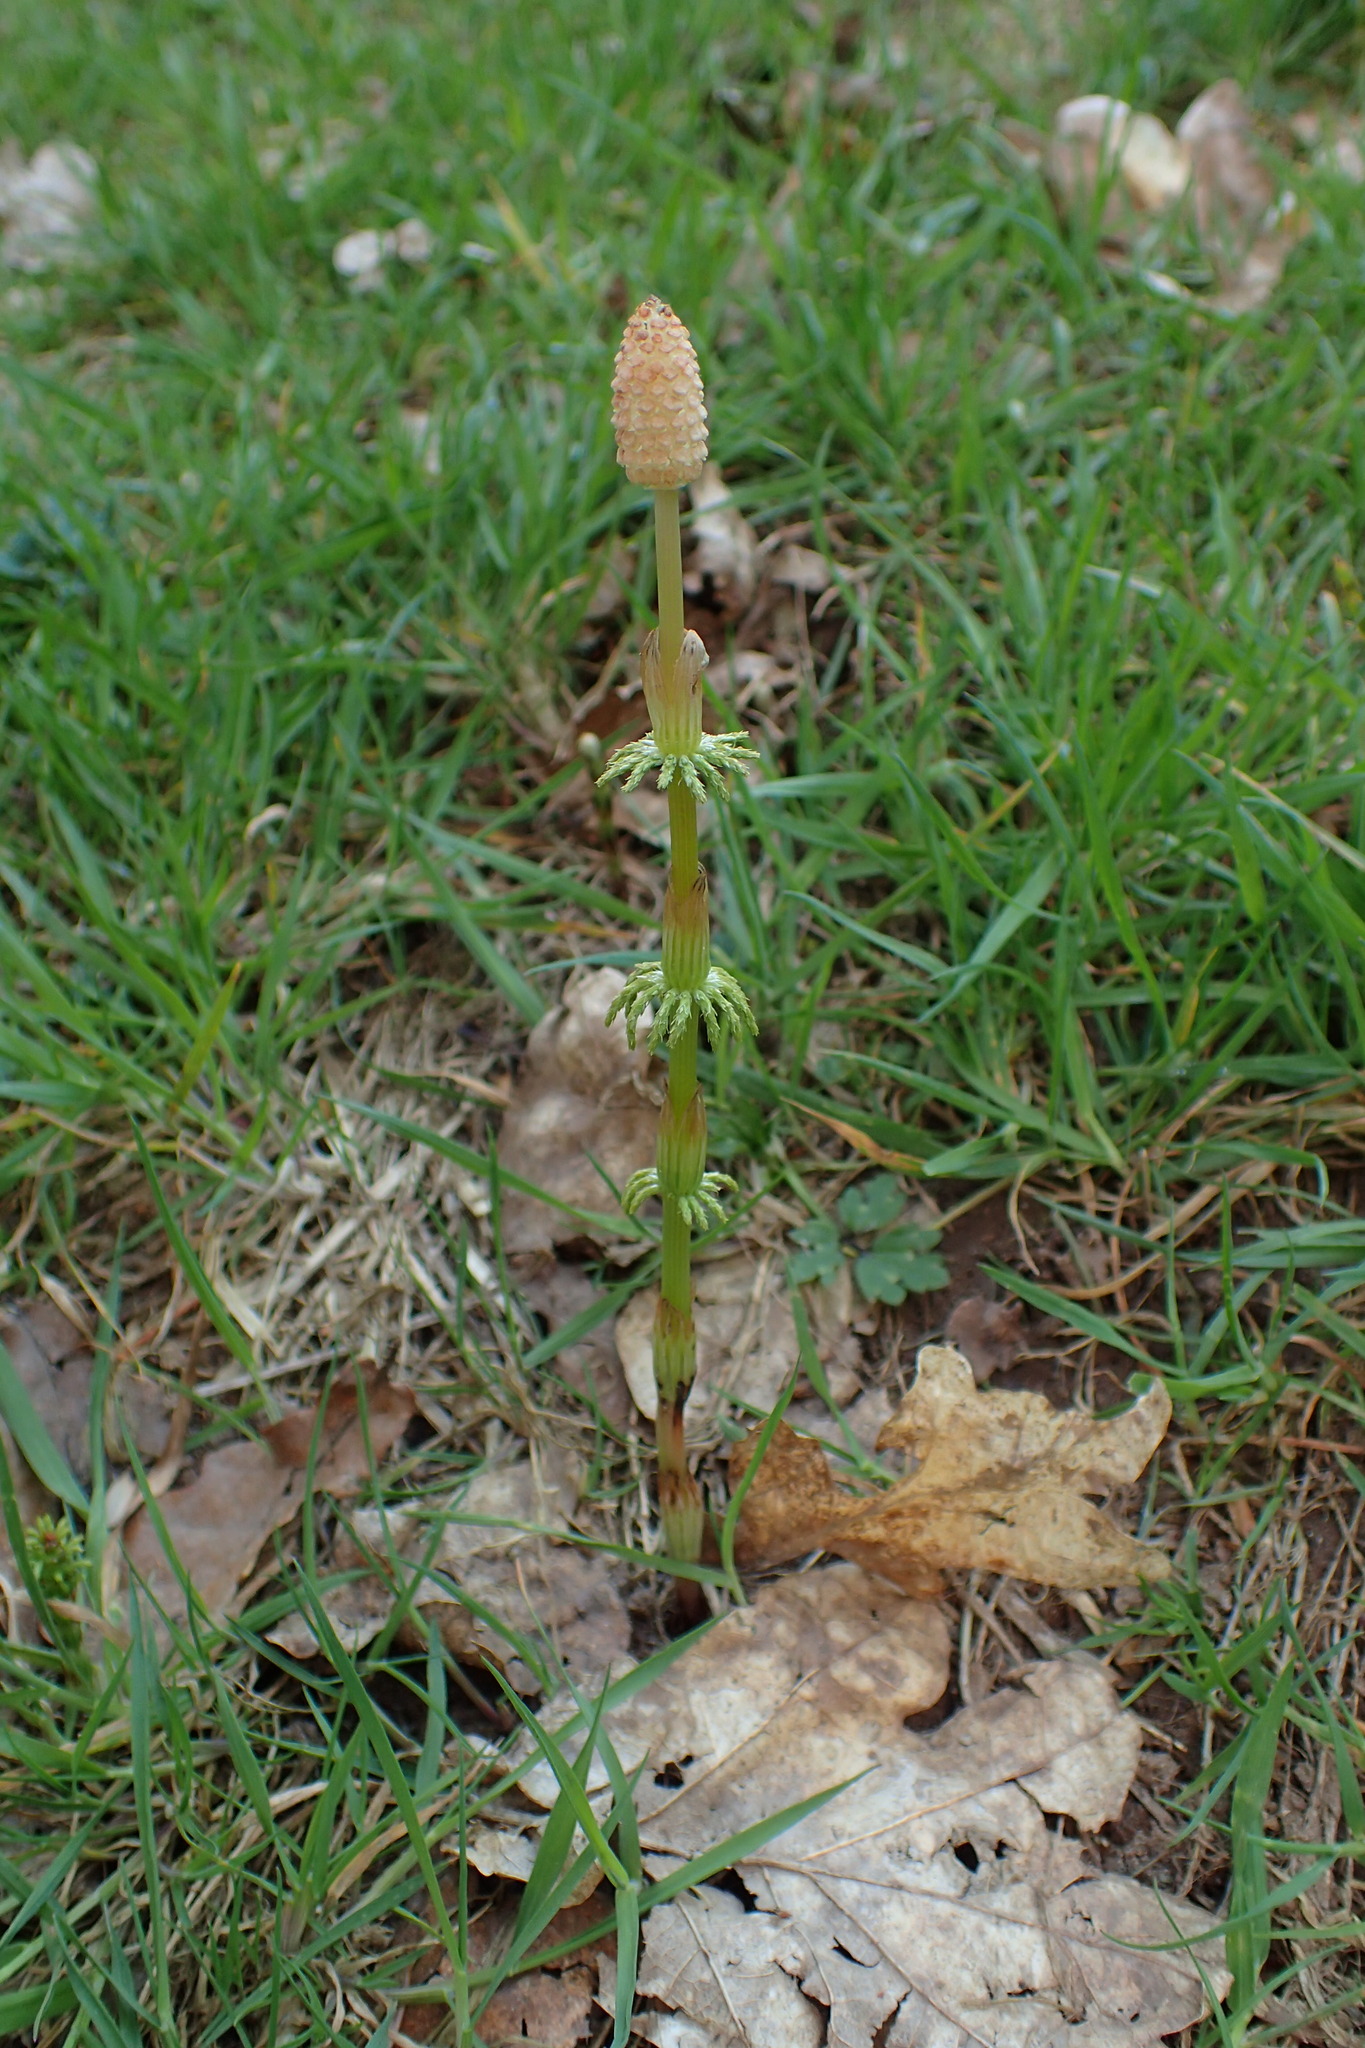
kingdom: Plantae
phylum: Tracheophyta
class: Polypodiopsida
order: Equisetales
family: Equisetaceae
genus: Equisetum
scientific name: Equisetum sylvaticum
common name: Wood horsetail
